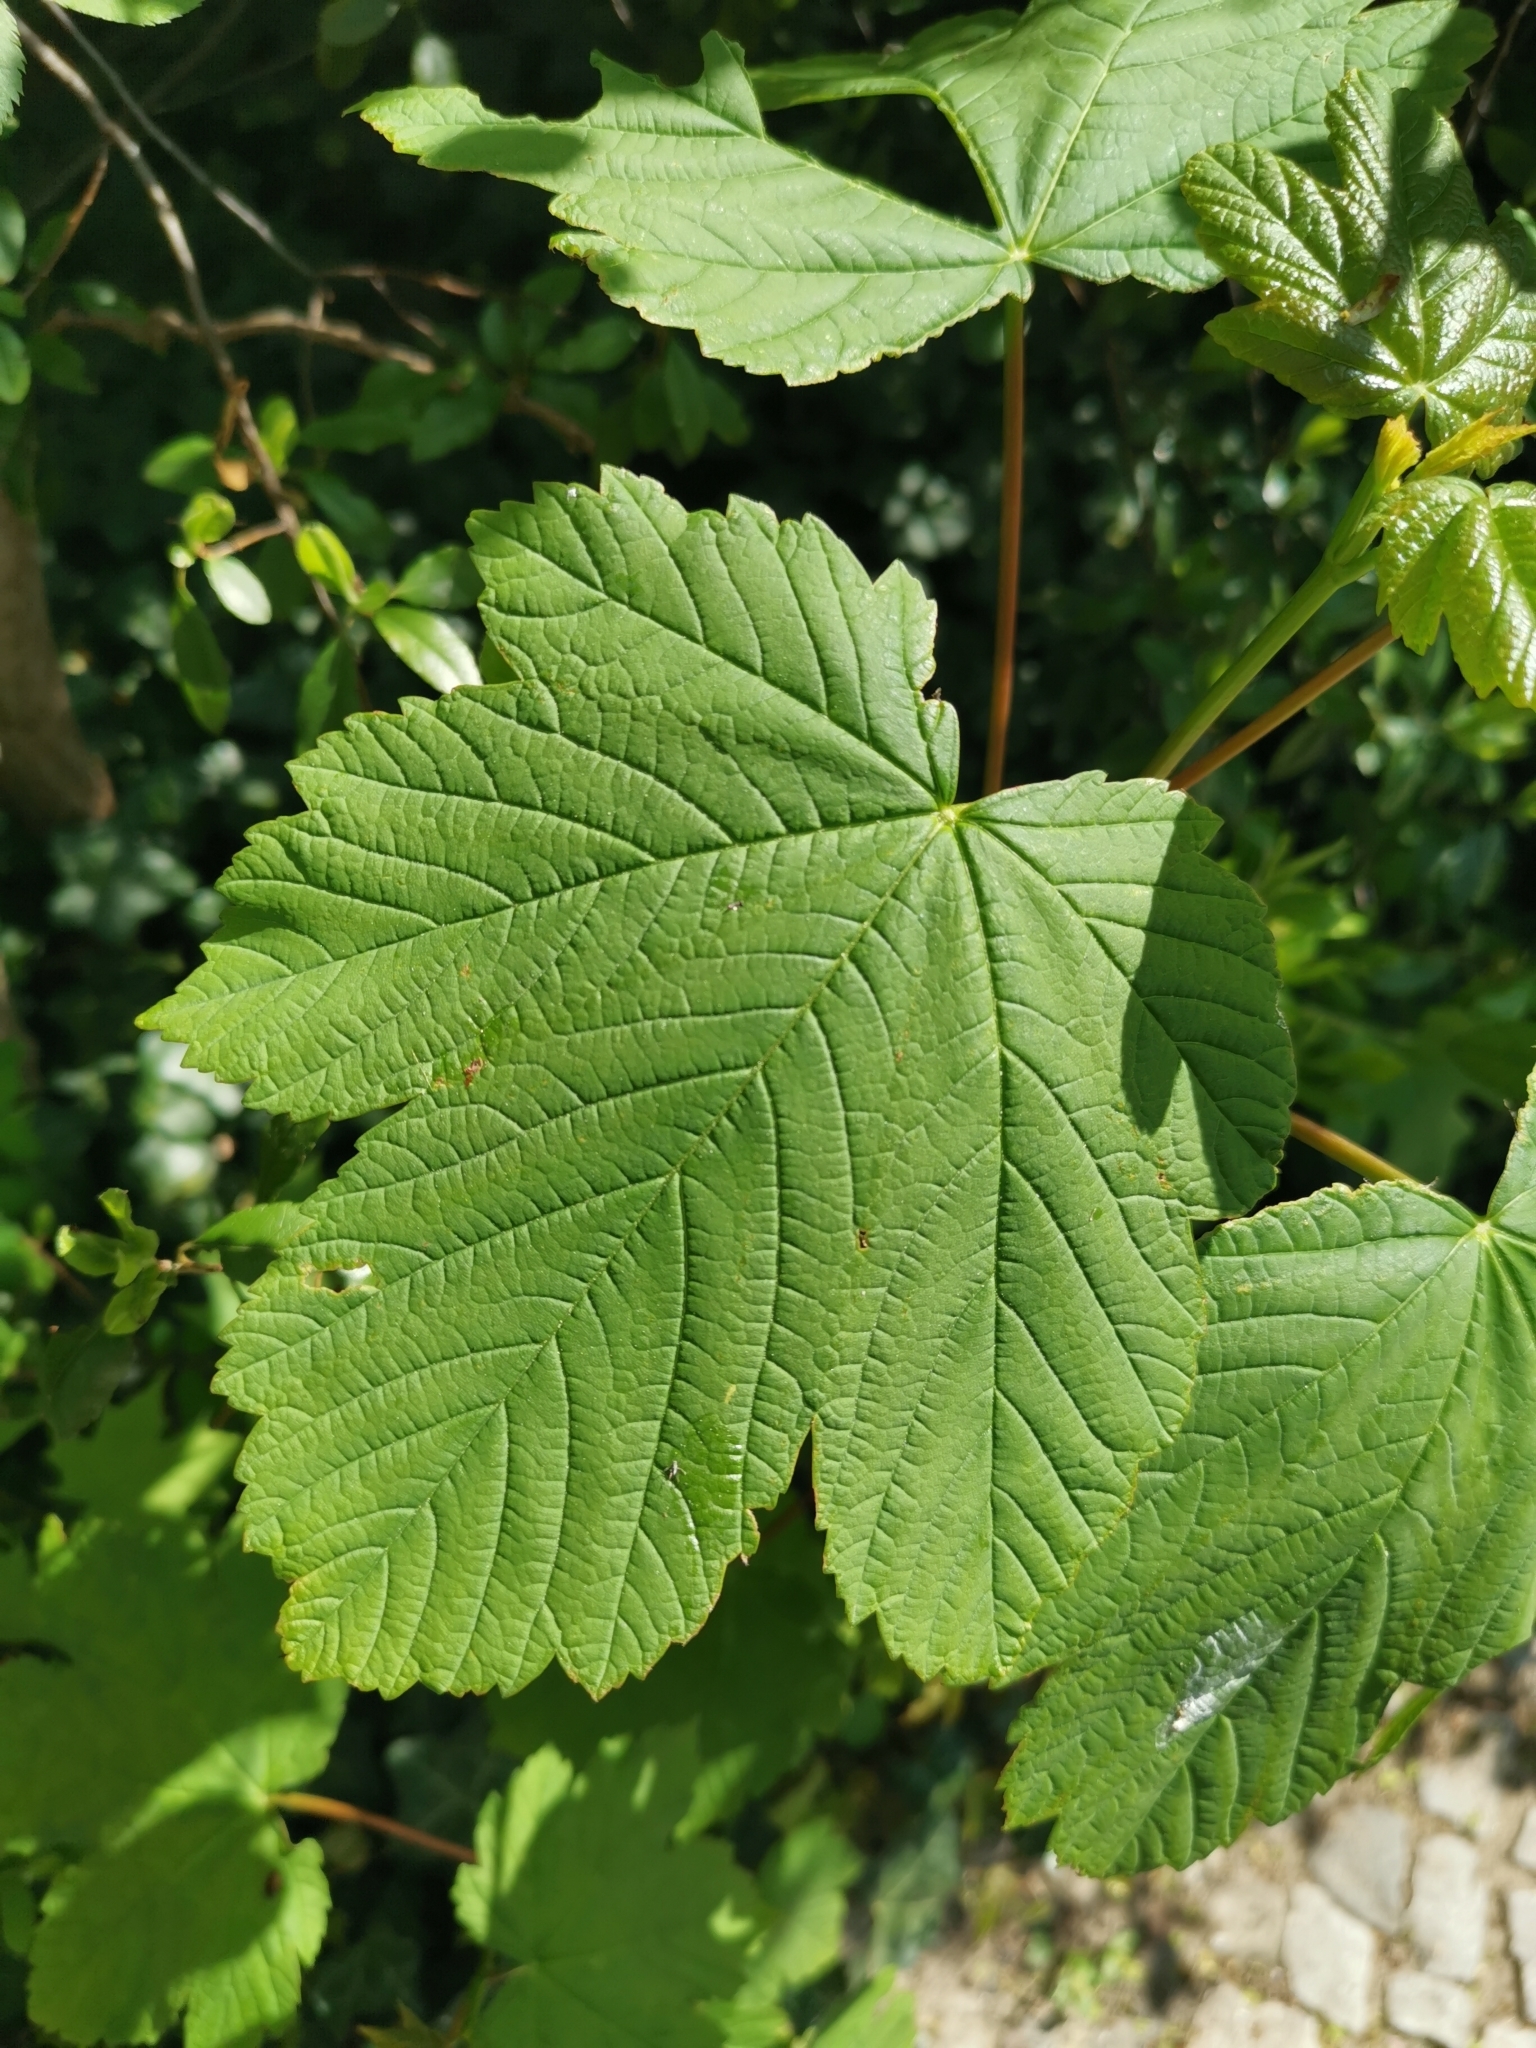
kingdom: Plantae
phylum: Tracheophyta
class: Magnoliopsida
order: Sapindales
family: Sapindaceae
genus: Acer
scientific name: Acer pseudoplatanus
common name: Sycamore
